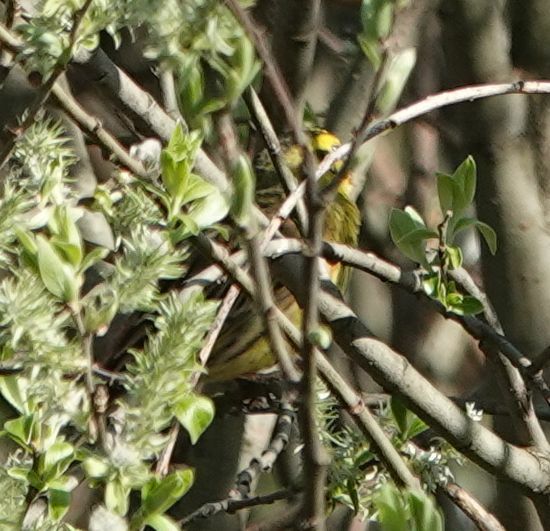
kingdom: Animalia
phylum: Chordata
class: Aves
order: Passeriformes
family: Emberizidae
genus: Emberiza
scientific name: Emberiza citrinella
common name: Yellowhammer
